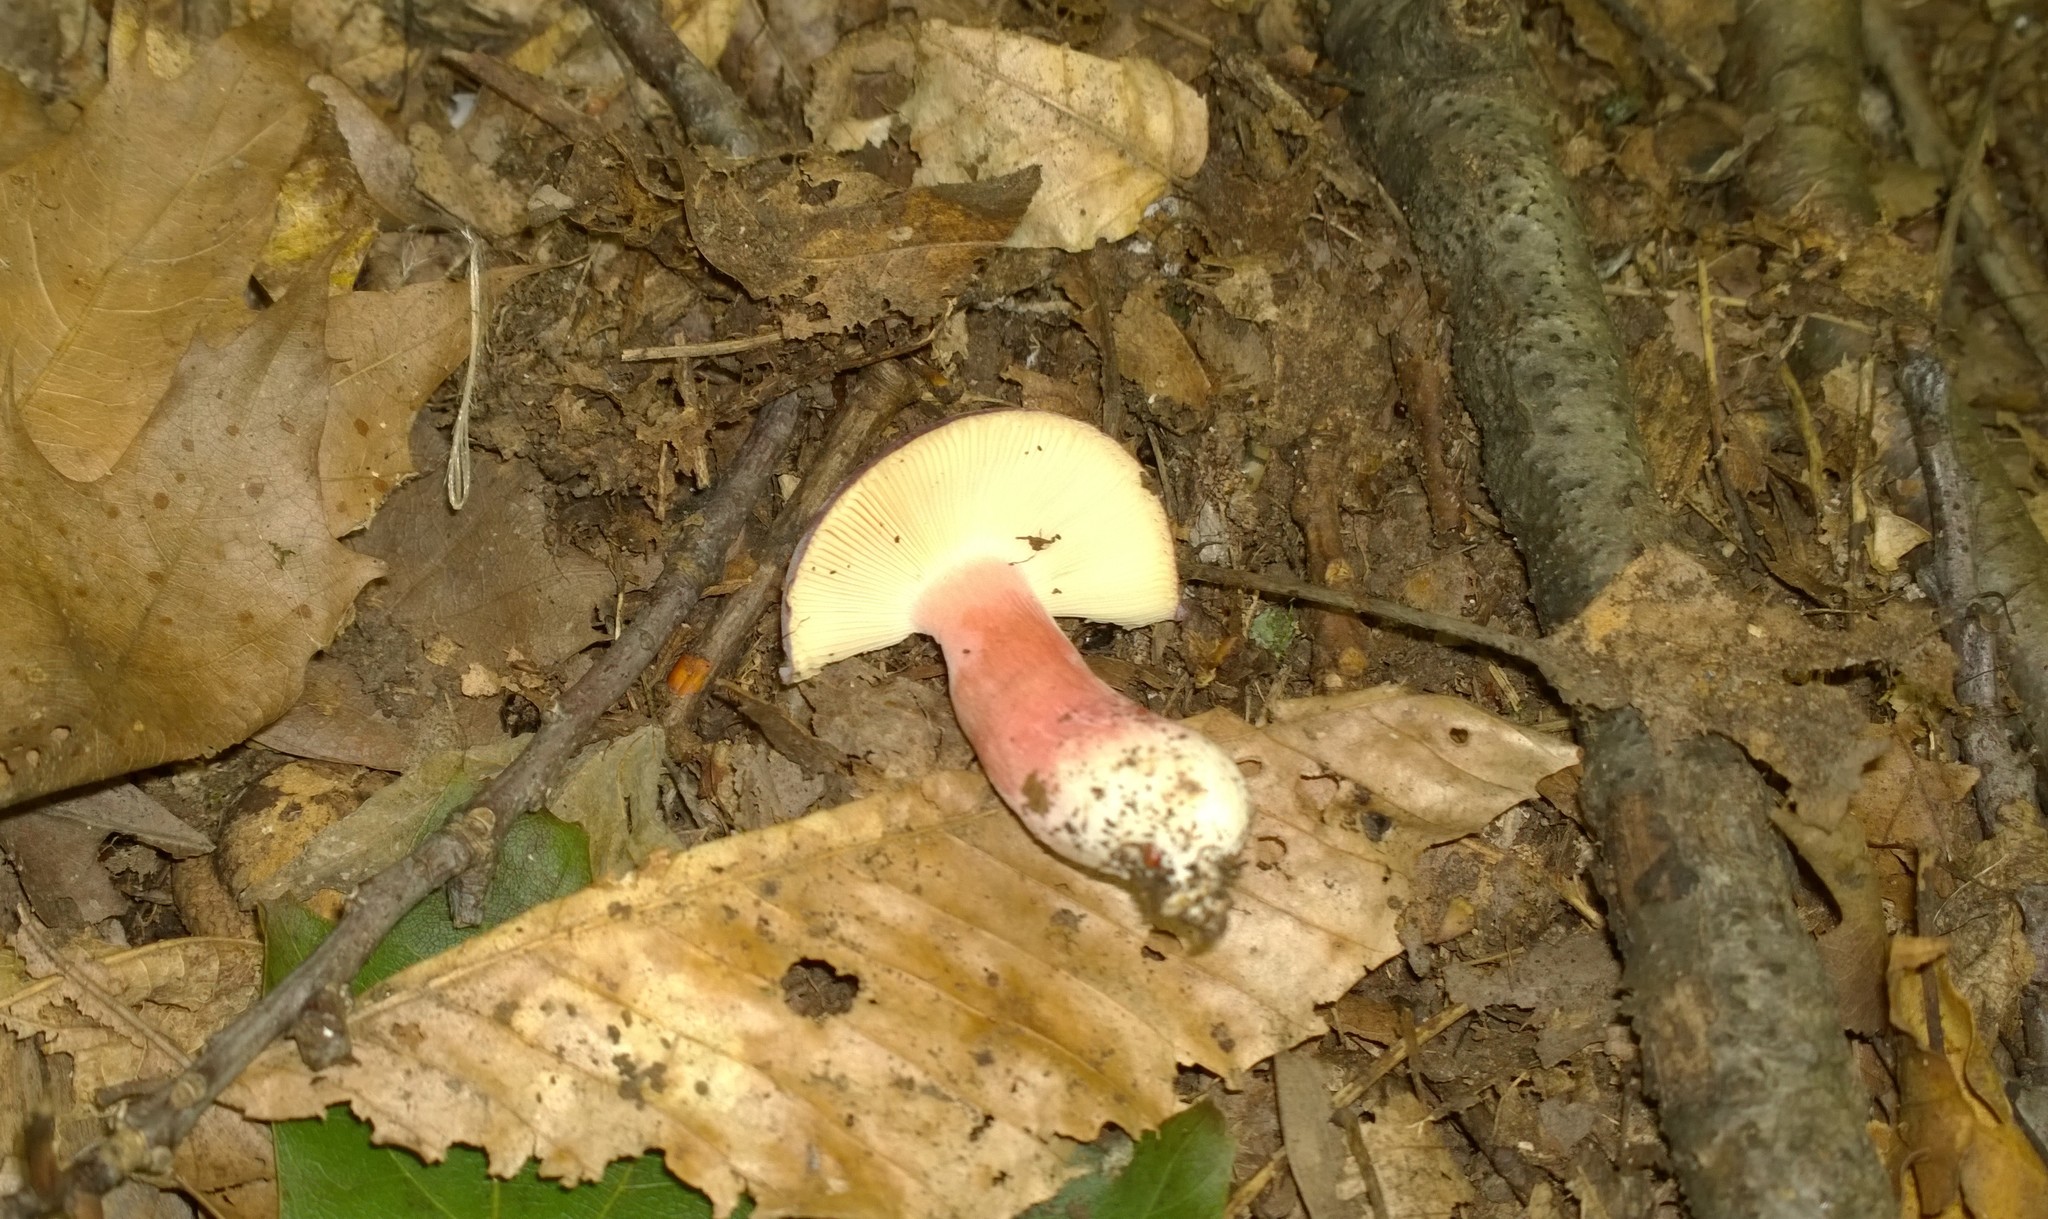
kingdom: Fungi
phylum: Basidiomycota
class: Agaricomycetes
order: Russulales
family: Russulaceae
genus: Russula
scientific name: Russula mariae
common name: Purple-bloom russula
